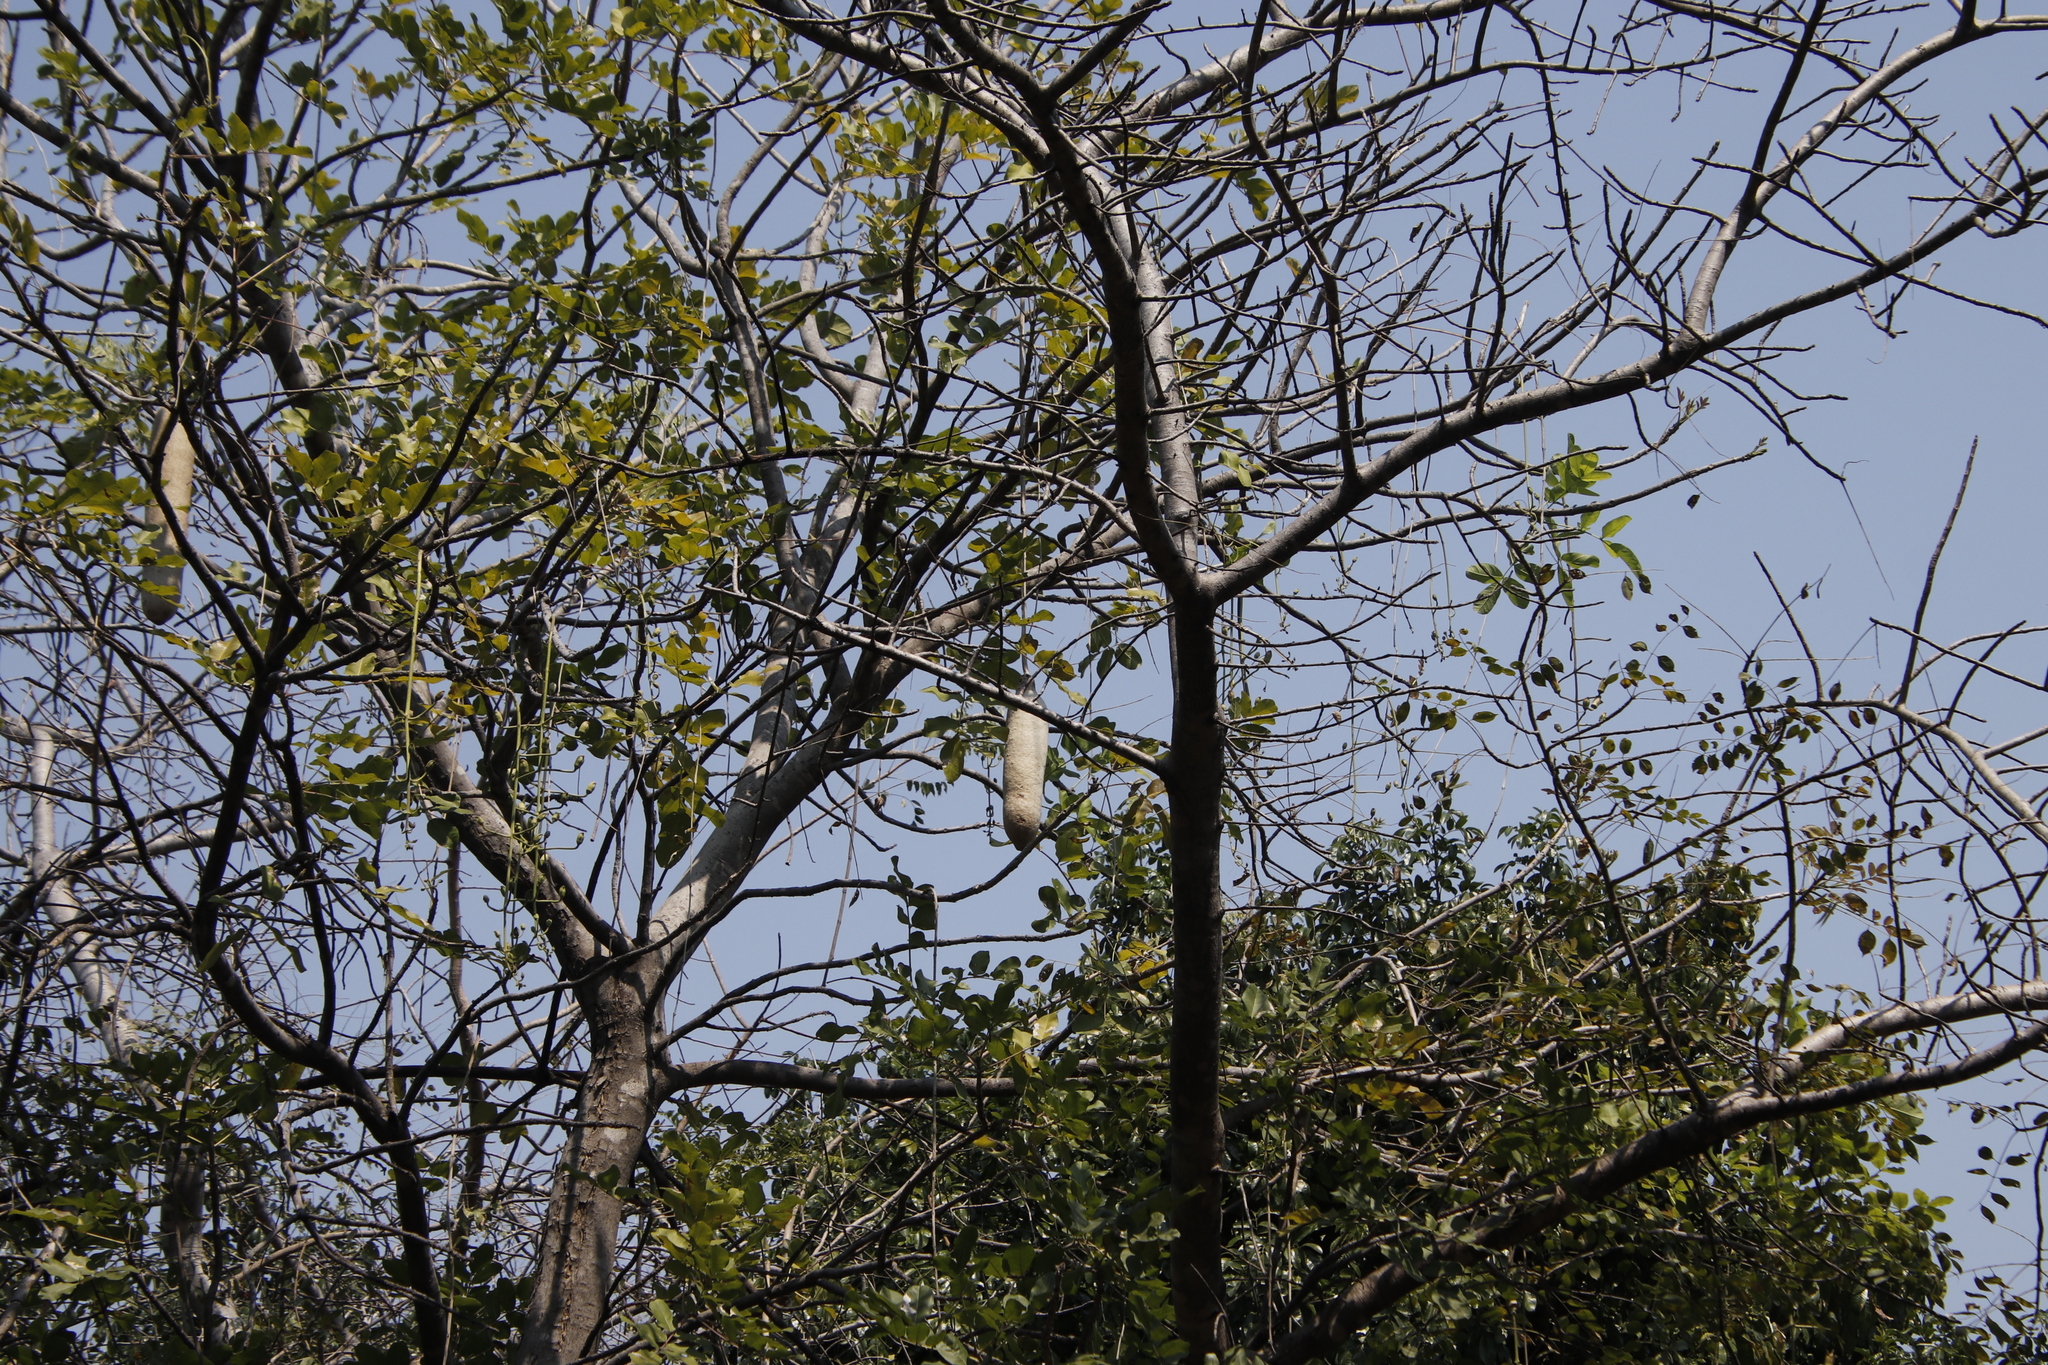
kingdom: Plantae
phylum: Tracheophyta
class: Magnoliopsida
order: Lamiales
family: Bignoniaceae
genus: Kigelia
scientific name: Kigelia africana
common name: Sausage tree
